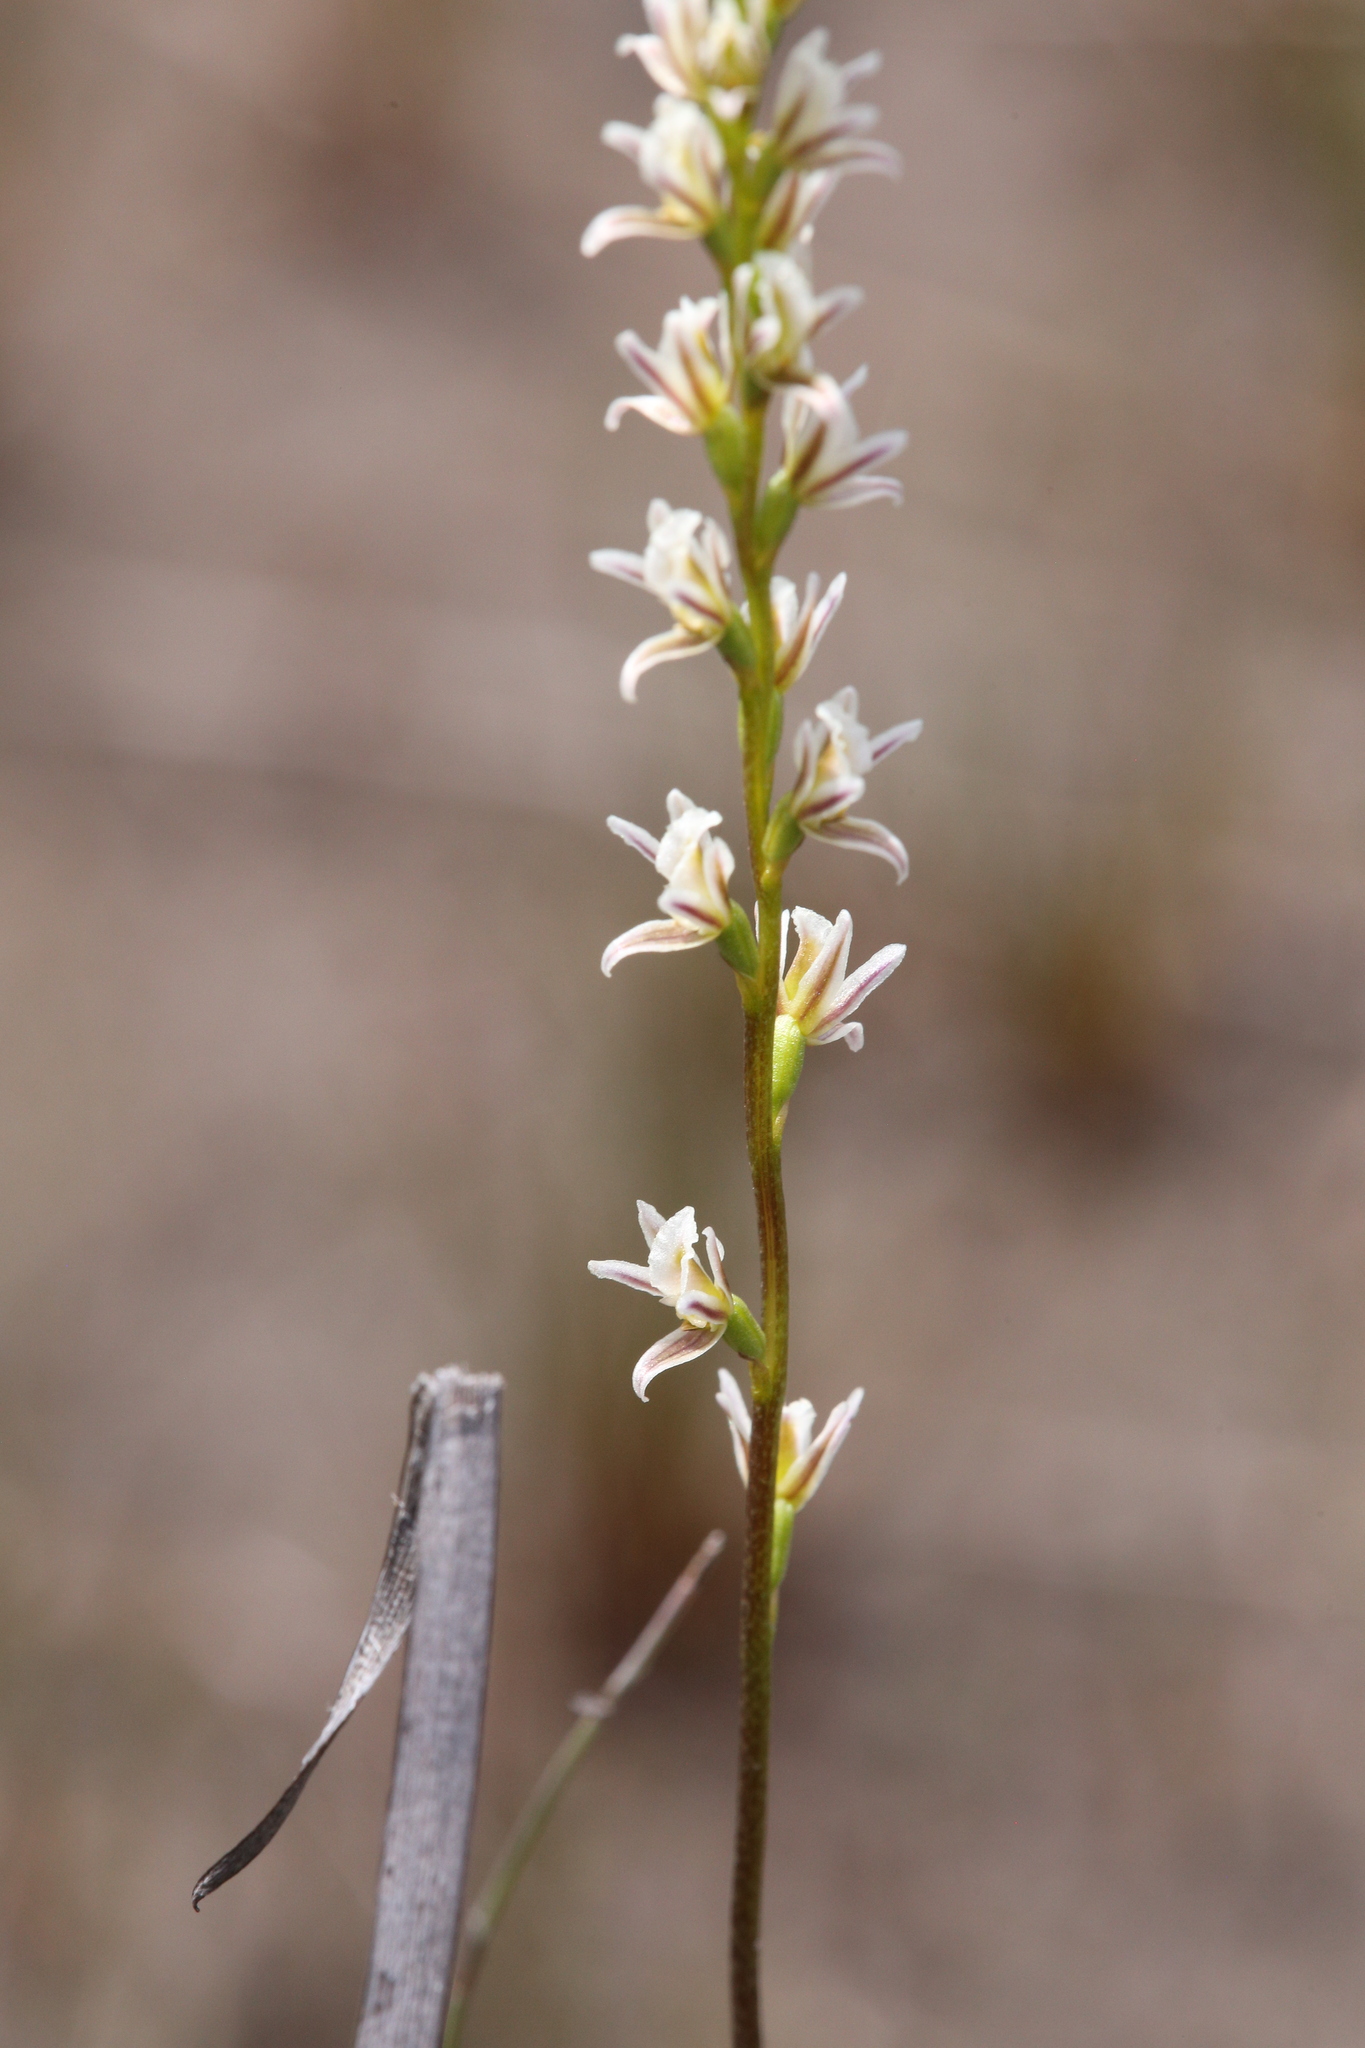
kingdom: Plantae
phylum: Tracheophyta
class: Liliopsida
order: Asparagales
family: Orchidaceae
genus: Prasophyllum
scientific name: Prasophyllum cyphochilum
